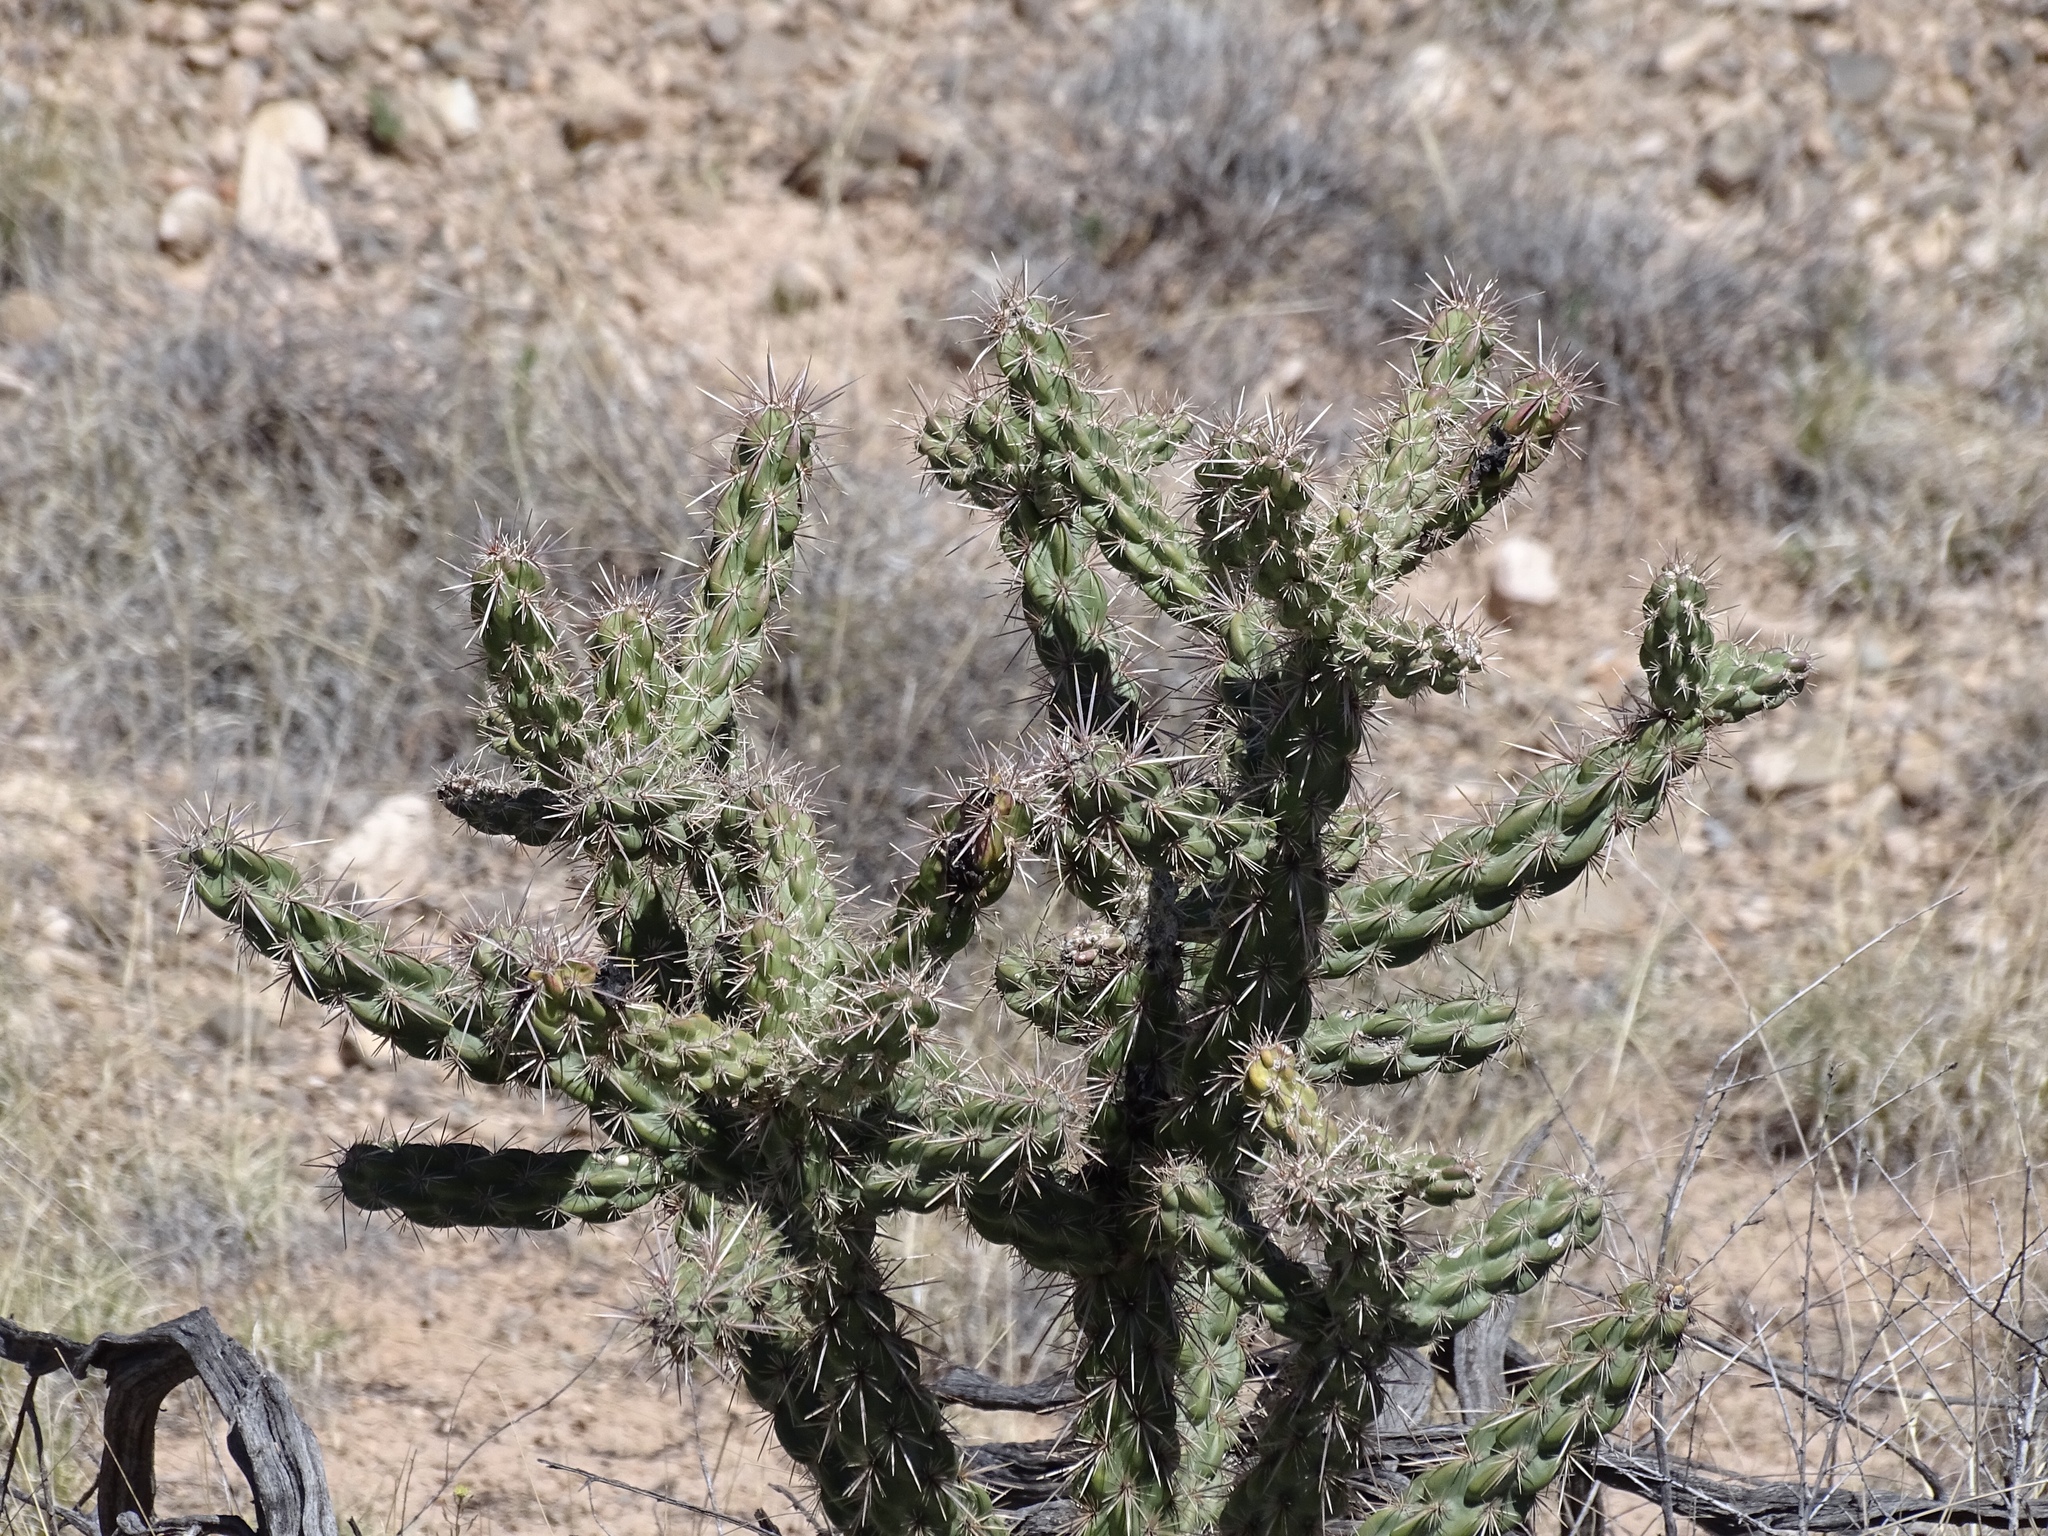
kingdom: Plantae
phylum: Tracheophyta
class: Magnoliopsida
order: Caryophyllales
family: Cactaceae
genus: Cylindropuntia
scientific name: Cylindropuntia imbricata
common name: Candelabrum cactus
